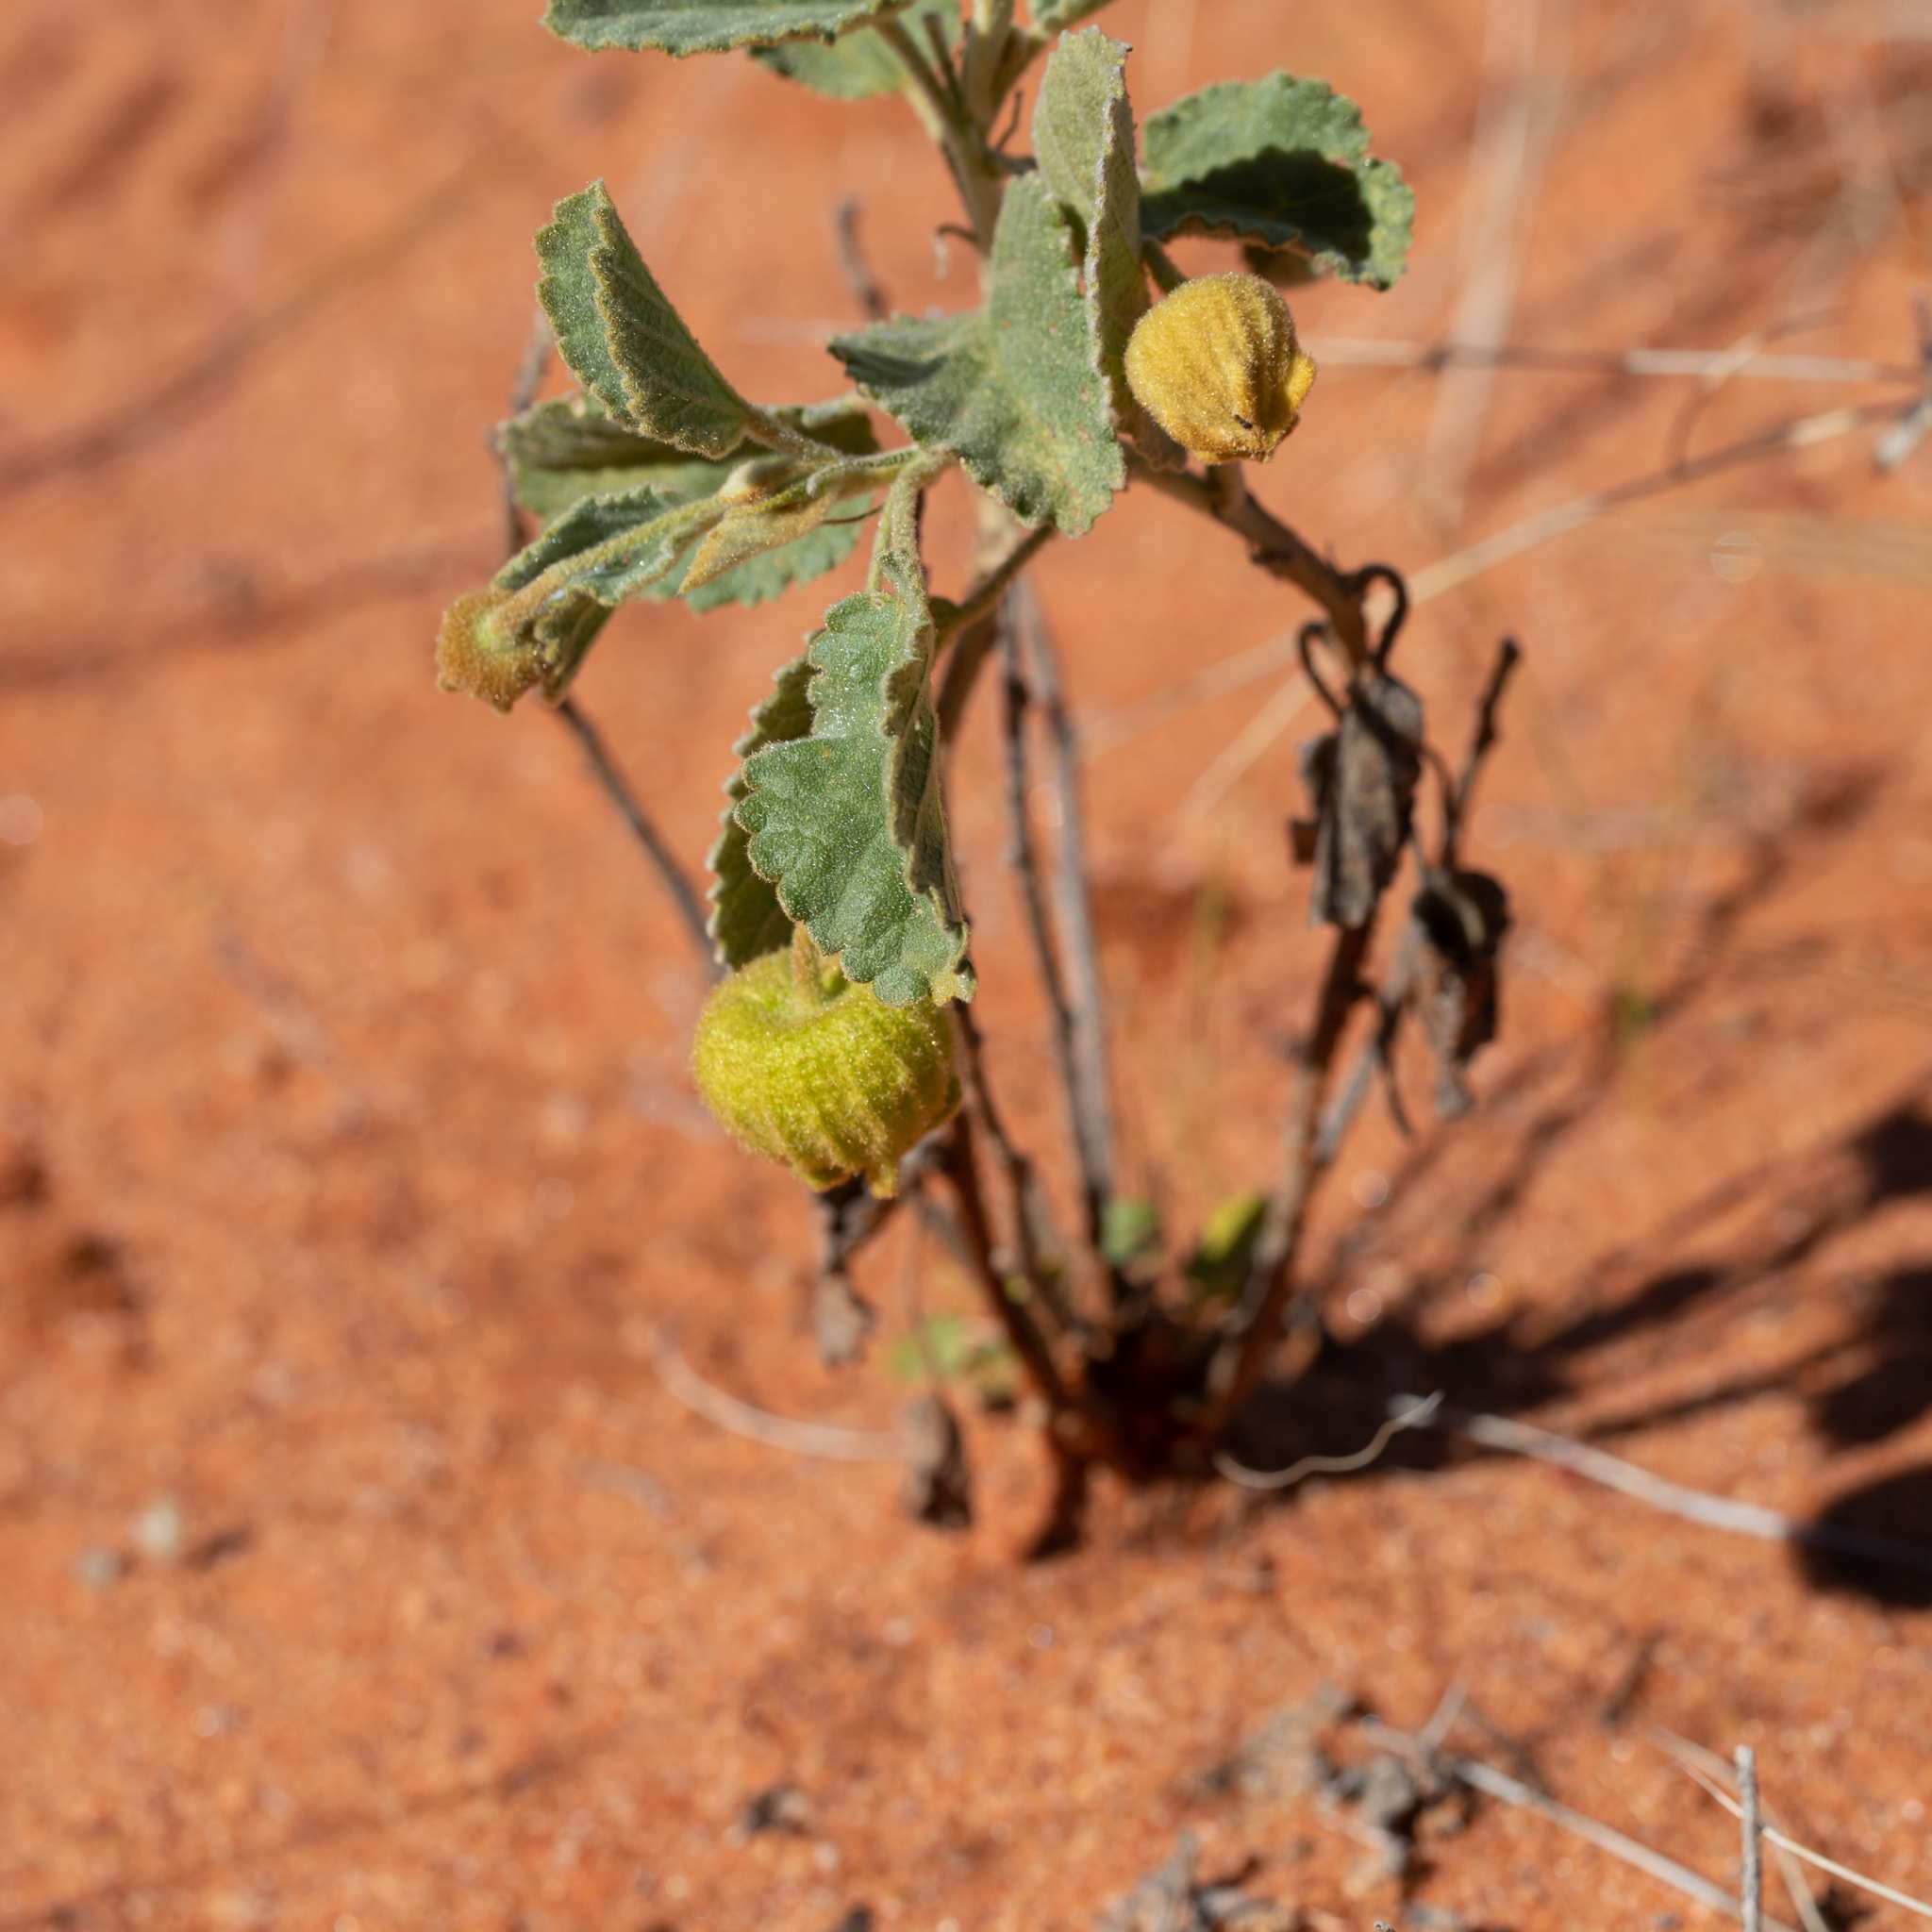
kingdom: Plantae
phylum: Tracheophyta
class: Magnoliopsida
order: Malvales
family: Malvaceae
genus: Sida
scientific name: Sida platycalyx
